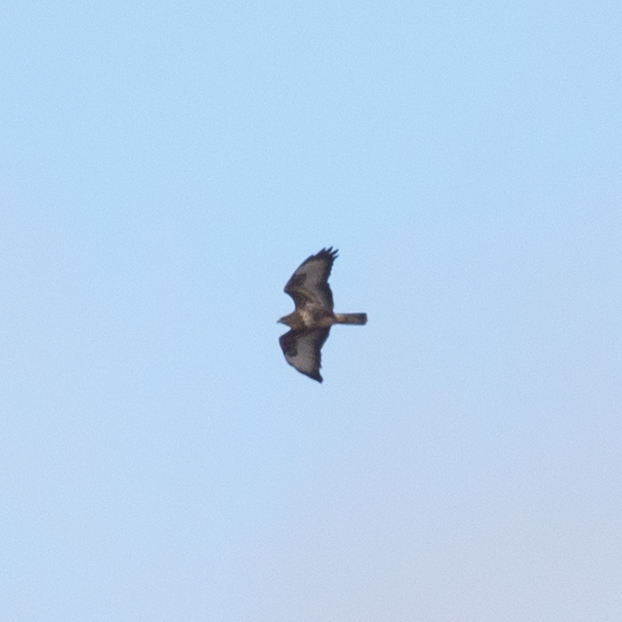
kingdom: Animalia
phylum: Chordata
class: Aves
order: Accipitriformes
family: Accipitridae
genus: Buteo
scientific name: Buteo buteo
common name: Common buzzard
